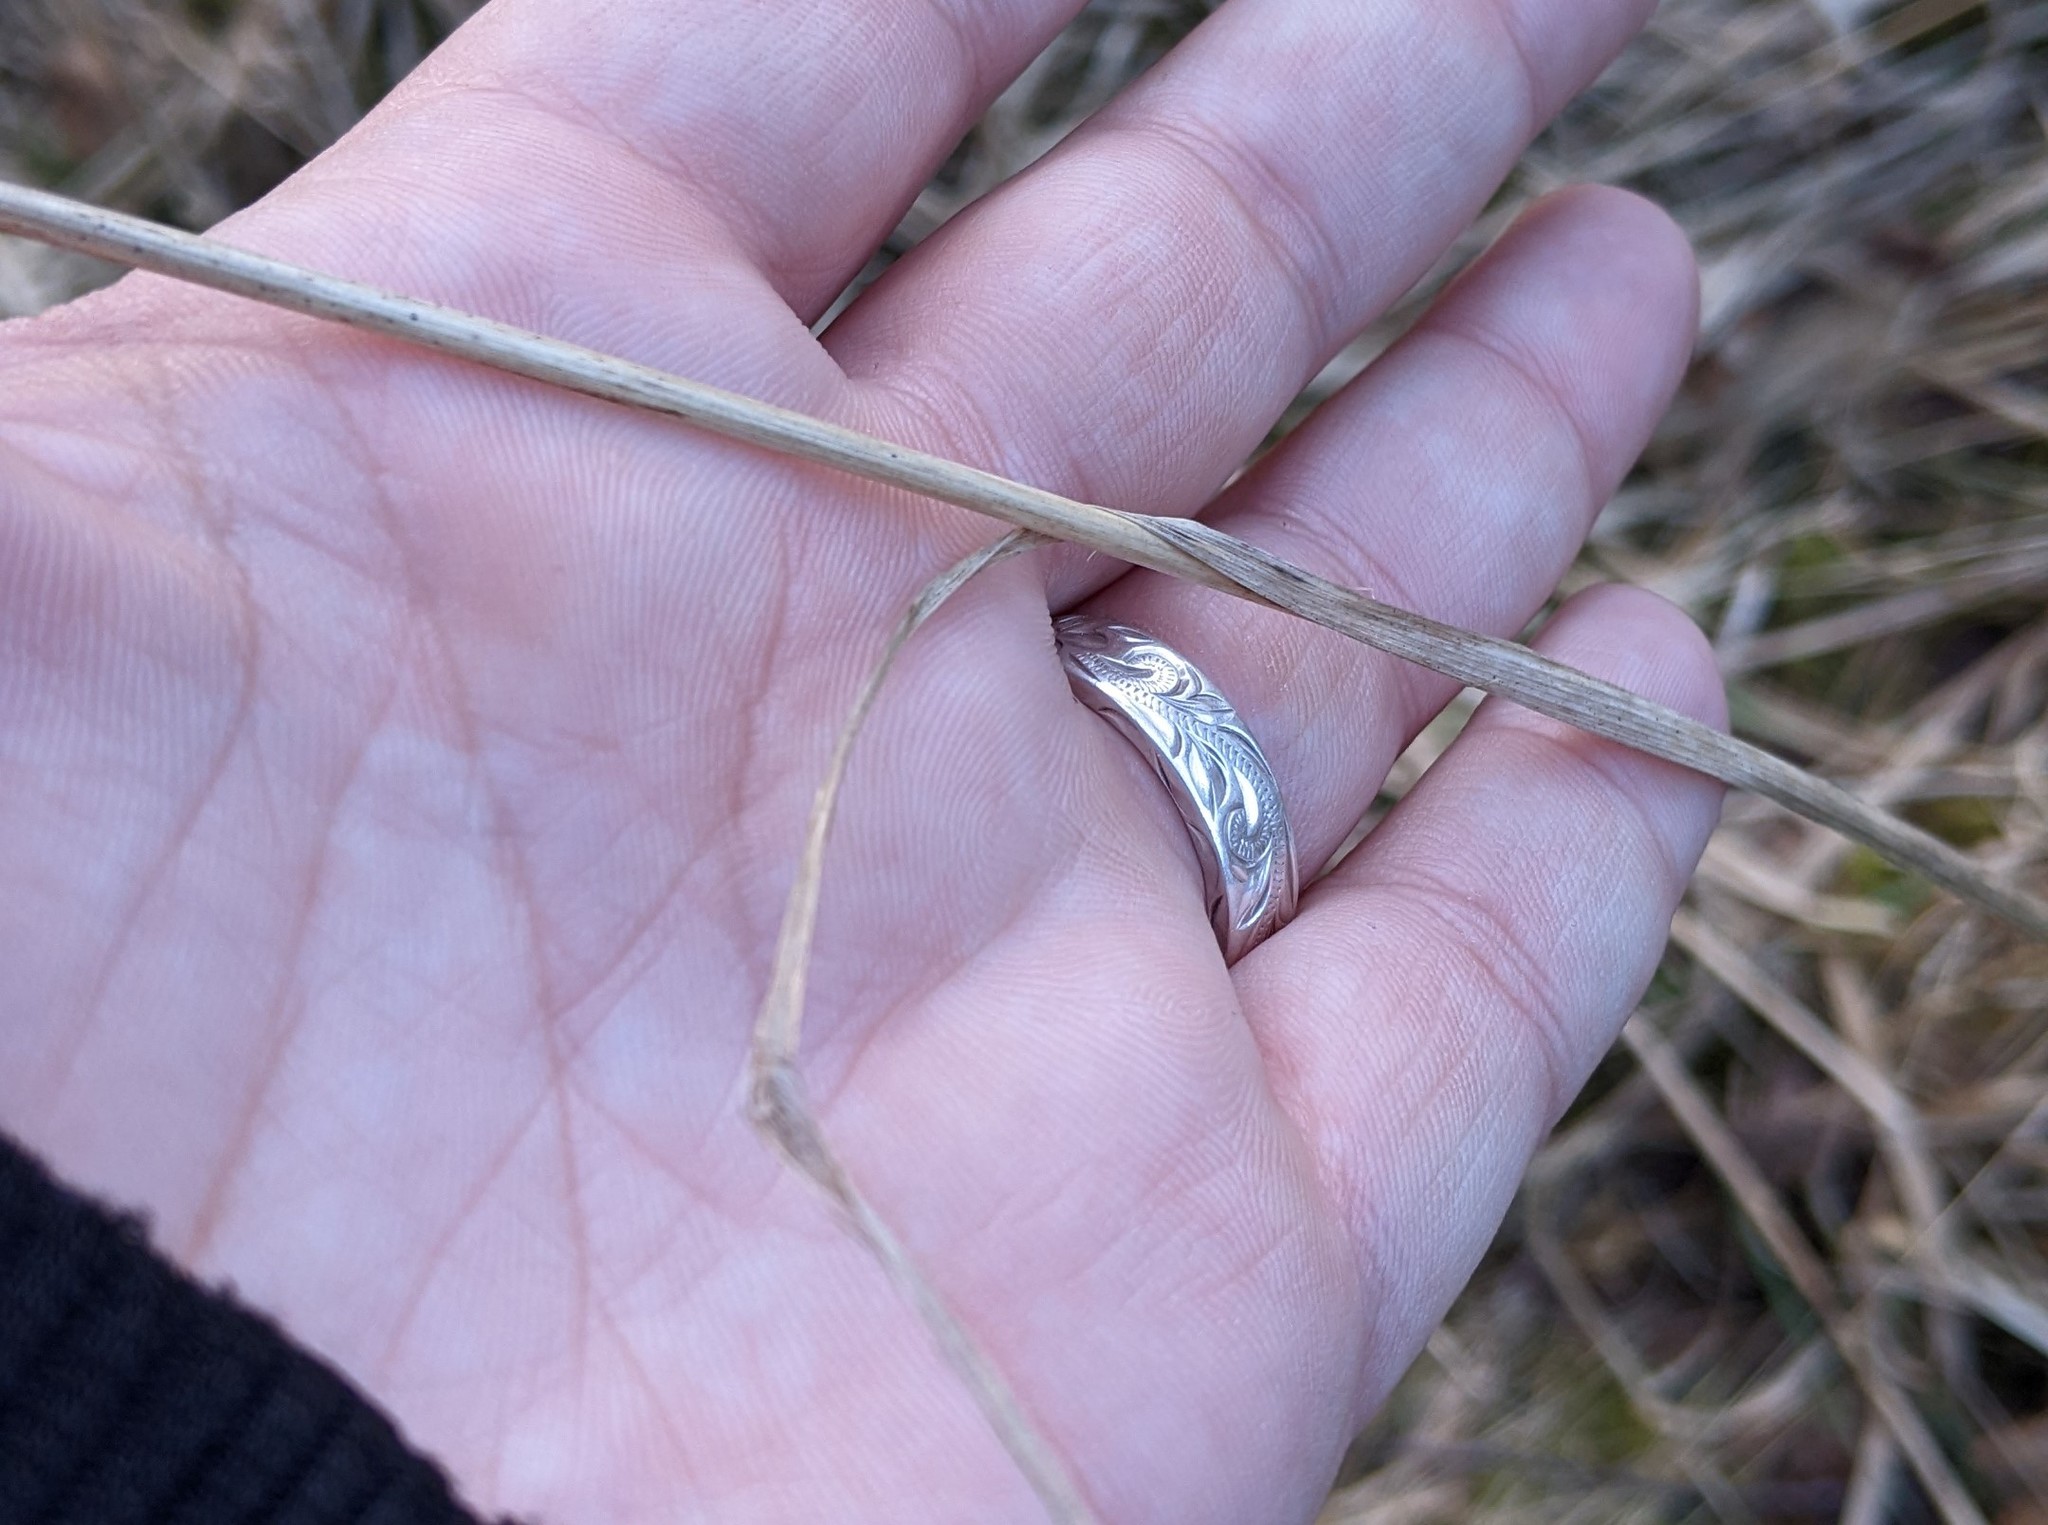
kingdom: Plantae
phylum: Tracheophyta
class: Liliopsida
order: Poales
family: Poaceae
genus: Dactylis
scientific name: Dactylis glomerata
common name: Orchardgrass
